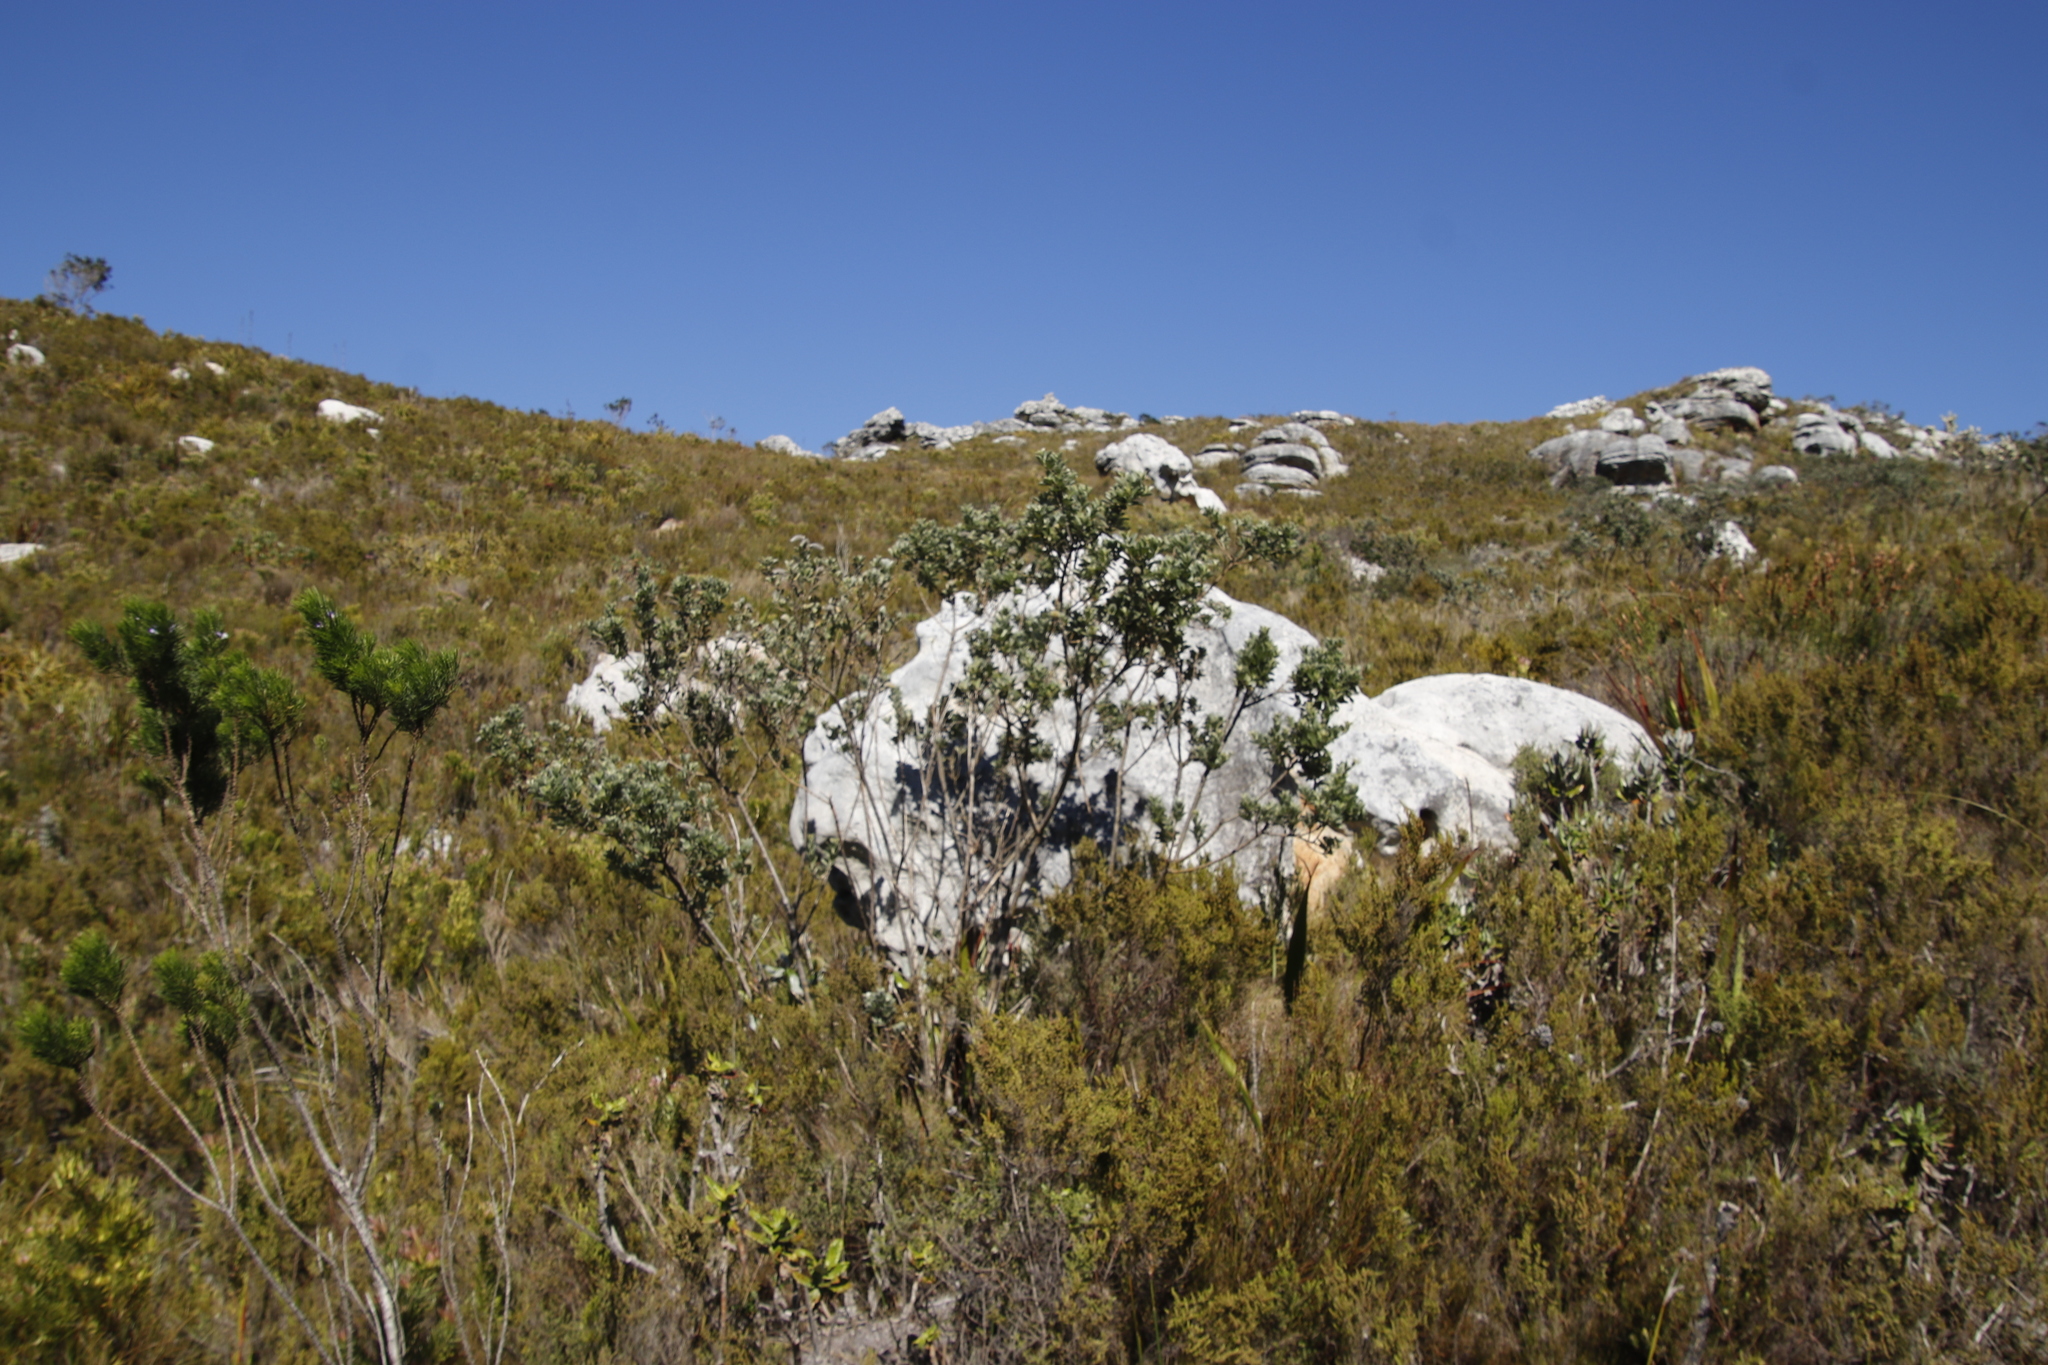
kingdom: Plantae
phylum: Tracheophyta
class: Magnoliopsida
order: Fabales
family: Fabaceae
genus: Psoralea
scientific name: Psoralea pinnata
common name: African scurfpea
